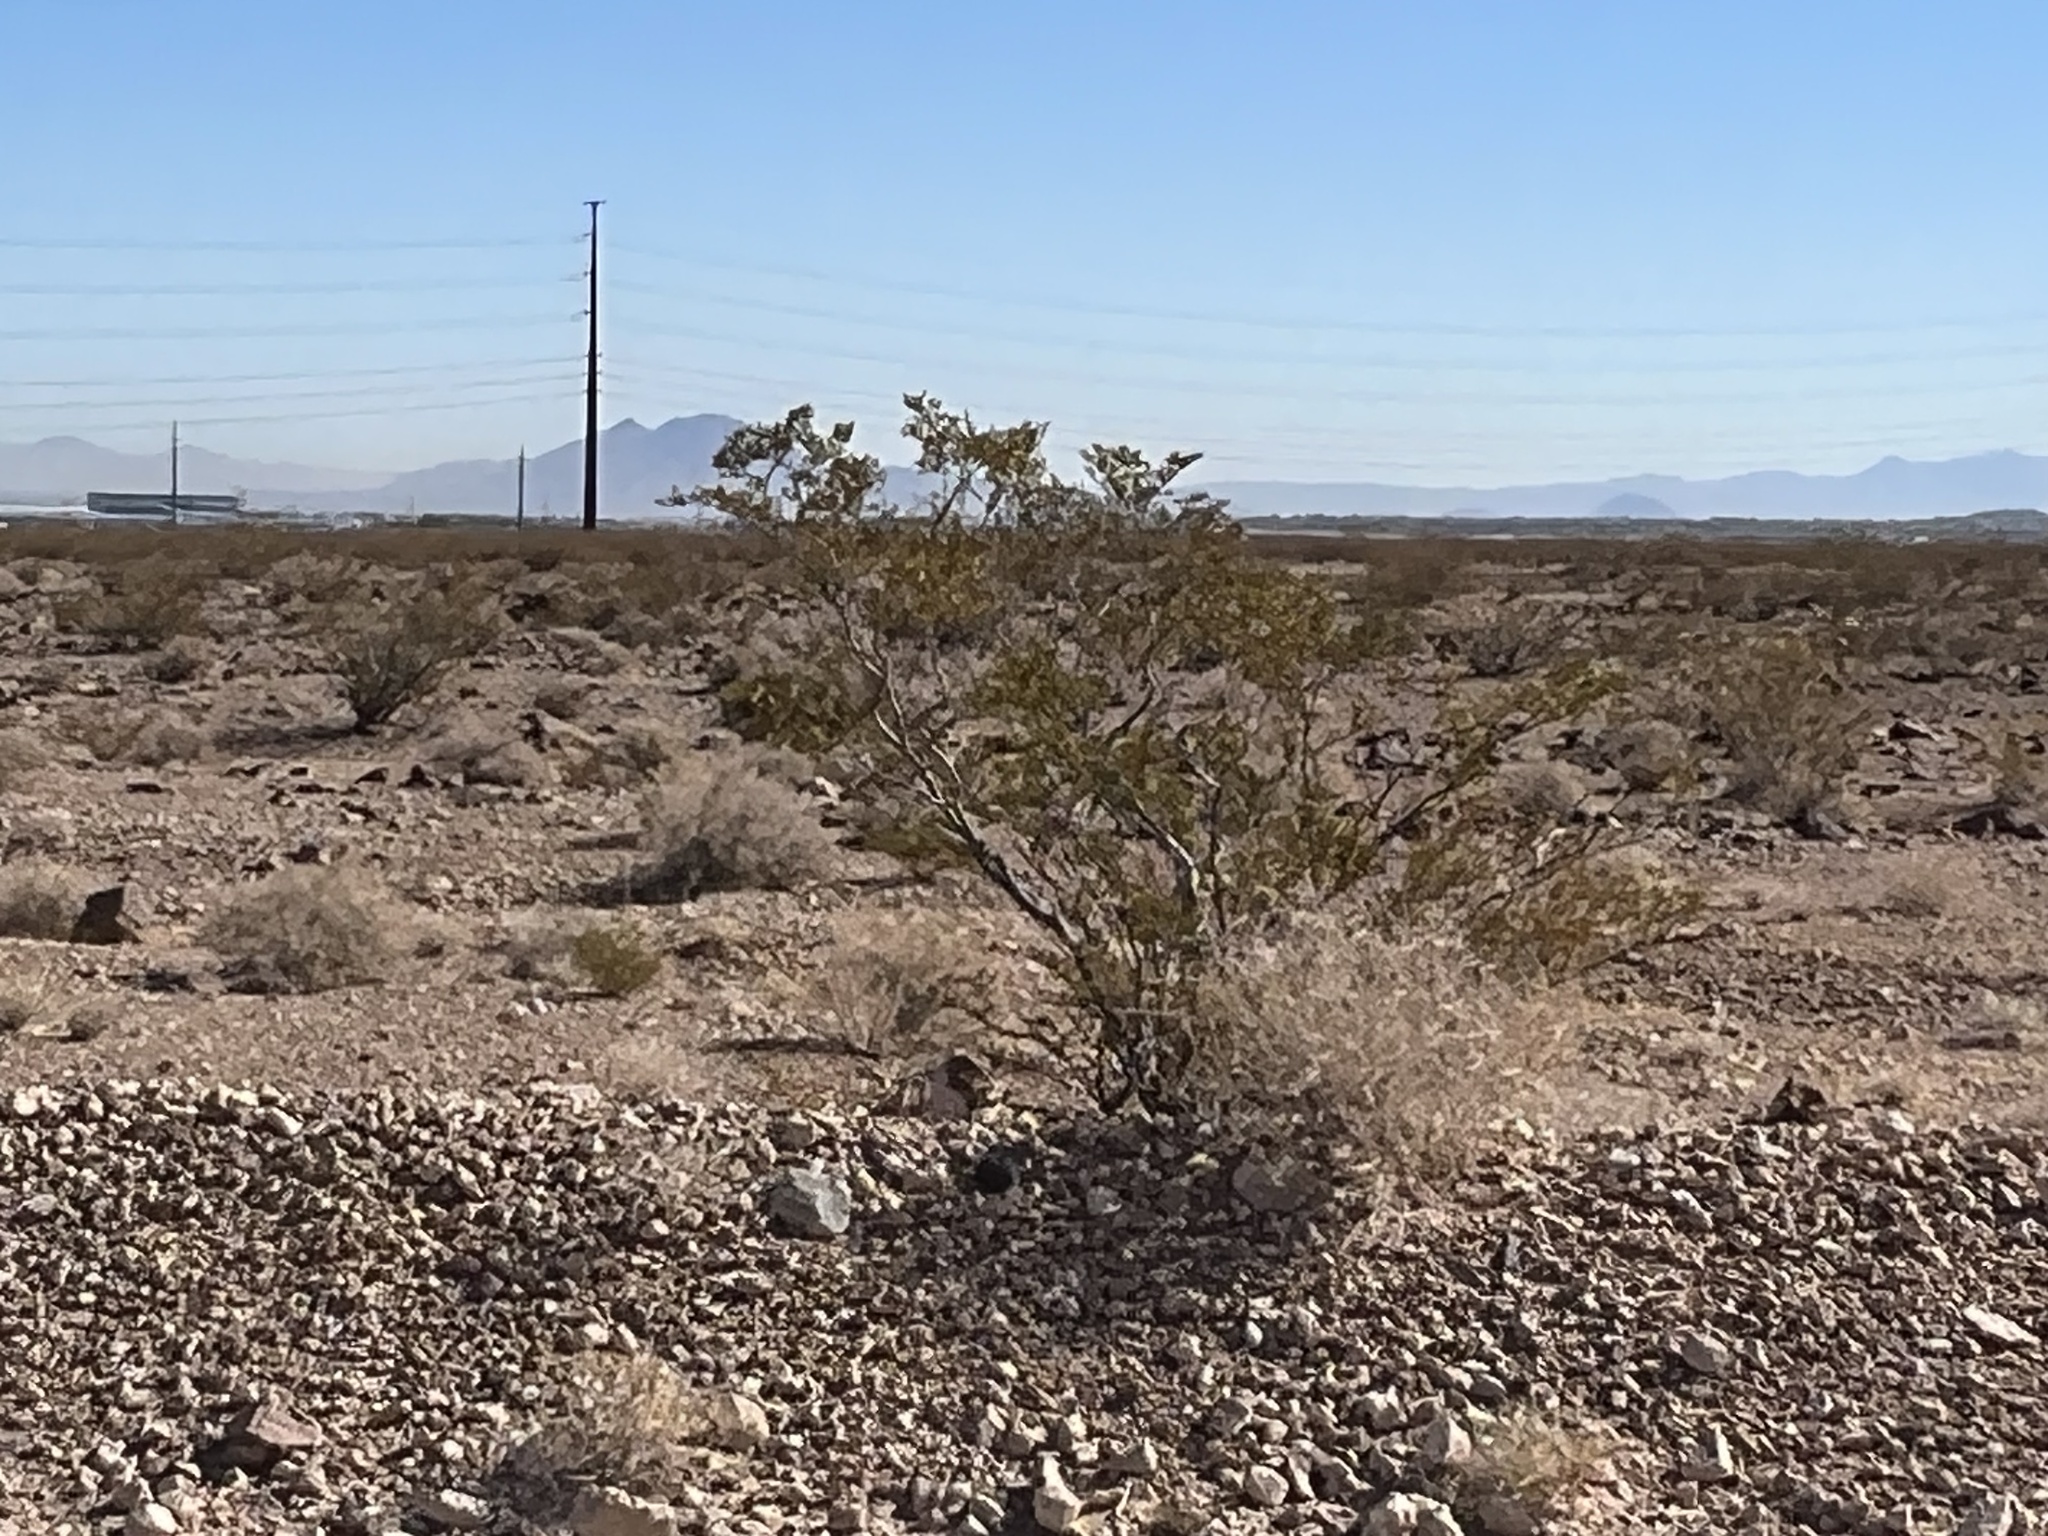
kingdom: Plantae
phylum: Tracheophyta
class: Magnoliopsida
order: Zygophyllales
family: Zygophyllaceae
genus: Larrea
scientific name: Larrea tridentata
